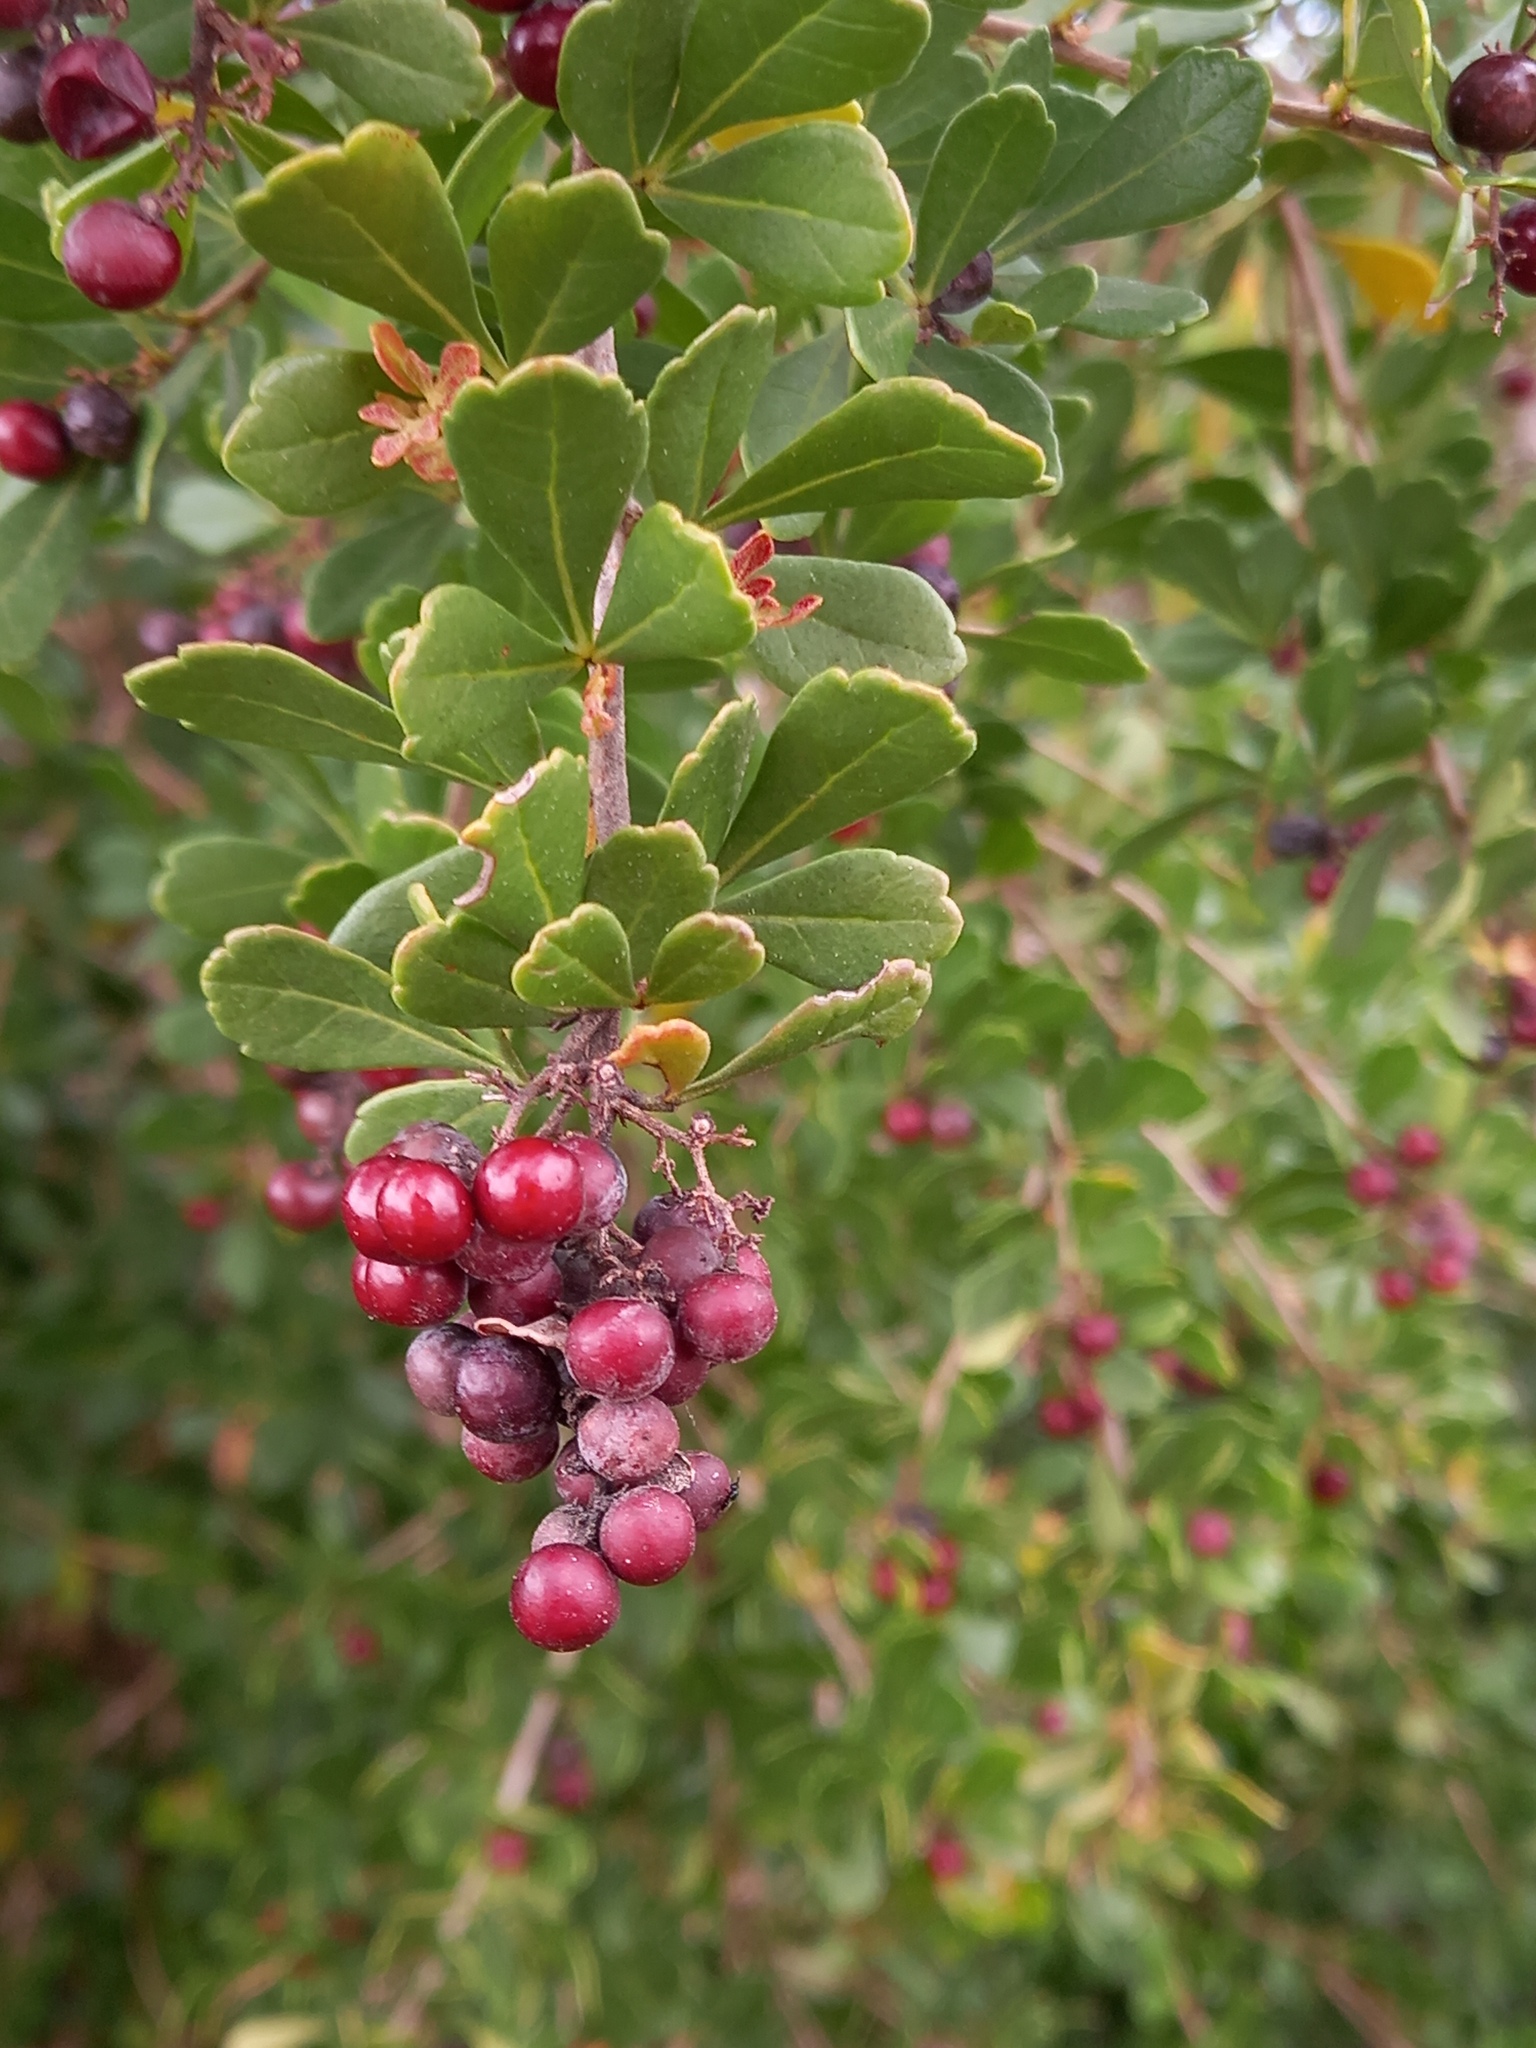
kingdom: Plantae
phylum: Tracheophyta
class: Magnoliopsida
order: Sapindales
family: Anacardiaceae
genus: Searsia
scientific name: Searsia crenata
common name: Crowberry
